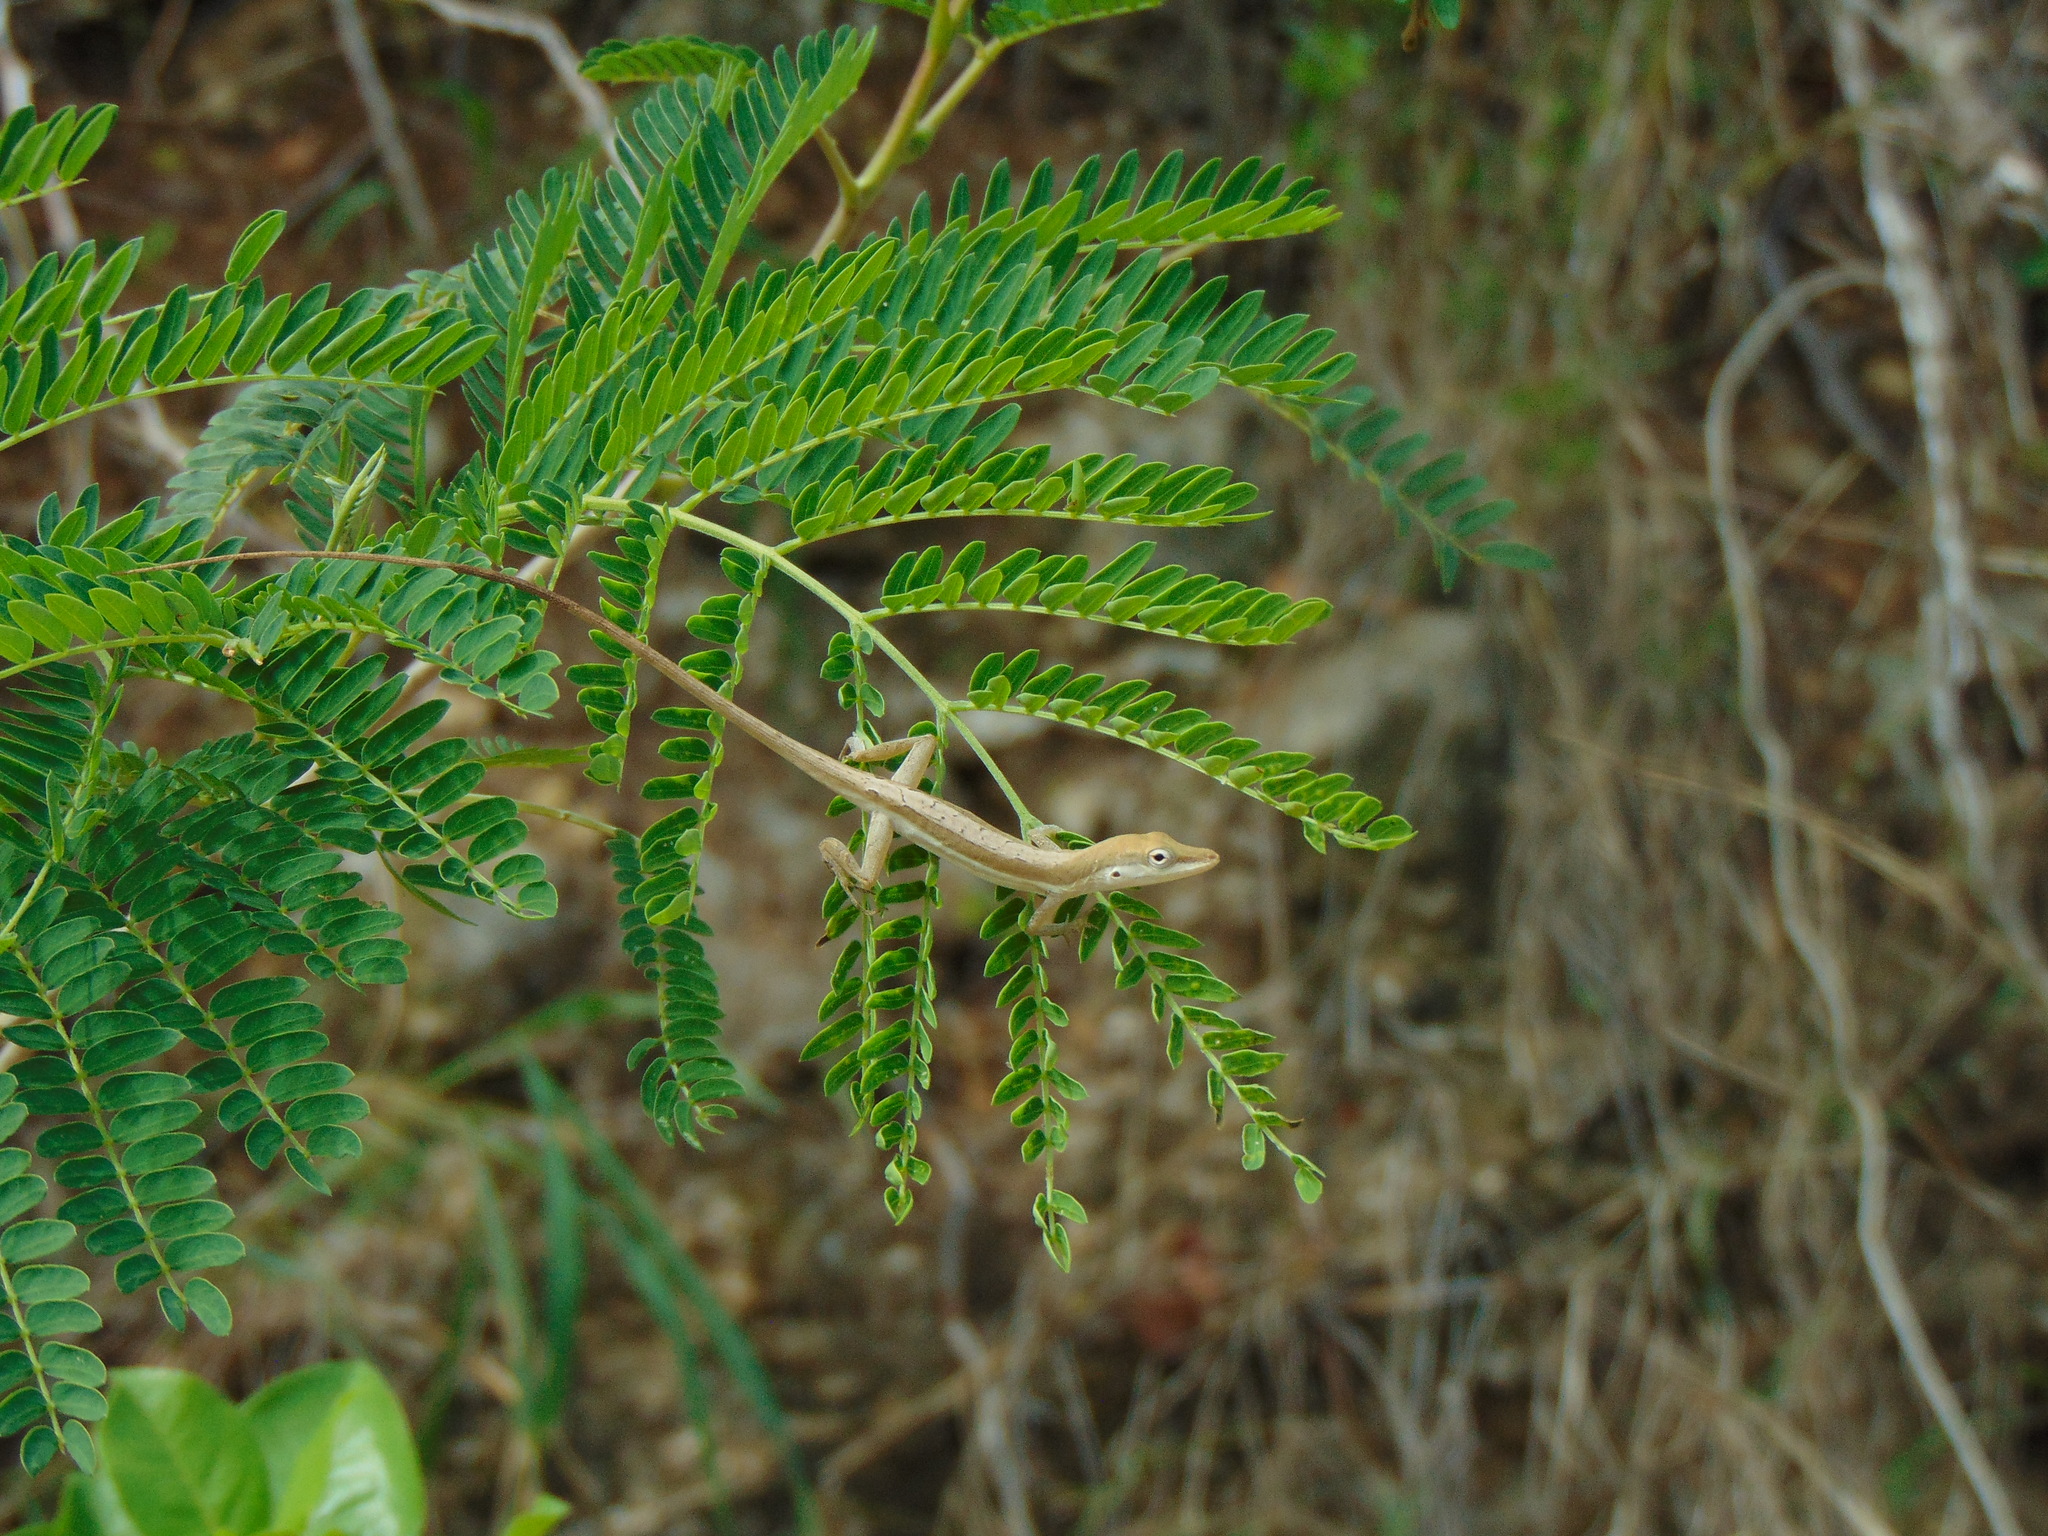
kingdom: Animalia
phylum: Chordata
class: Squamata
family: Dactyloidae
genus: Anolis
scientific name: Anolis pulchellus
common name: Puerto rican anole
